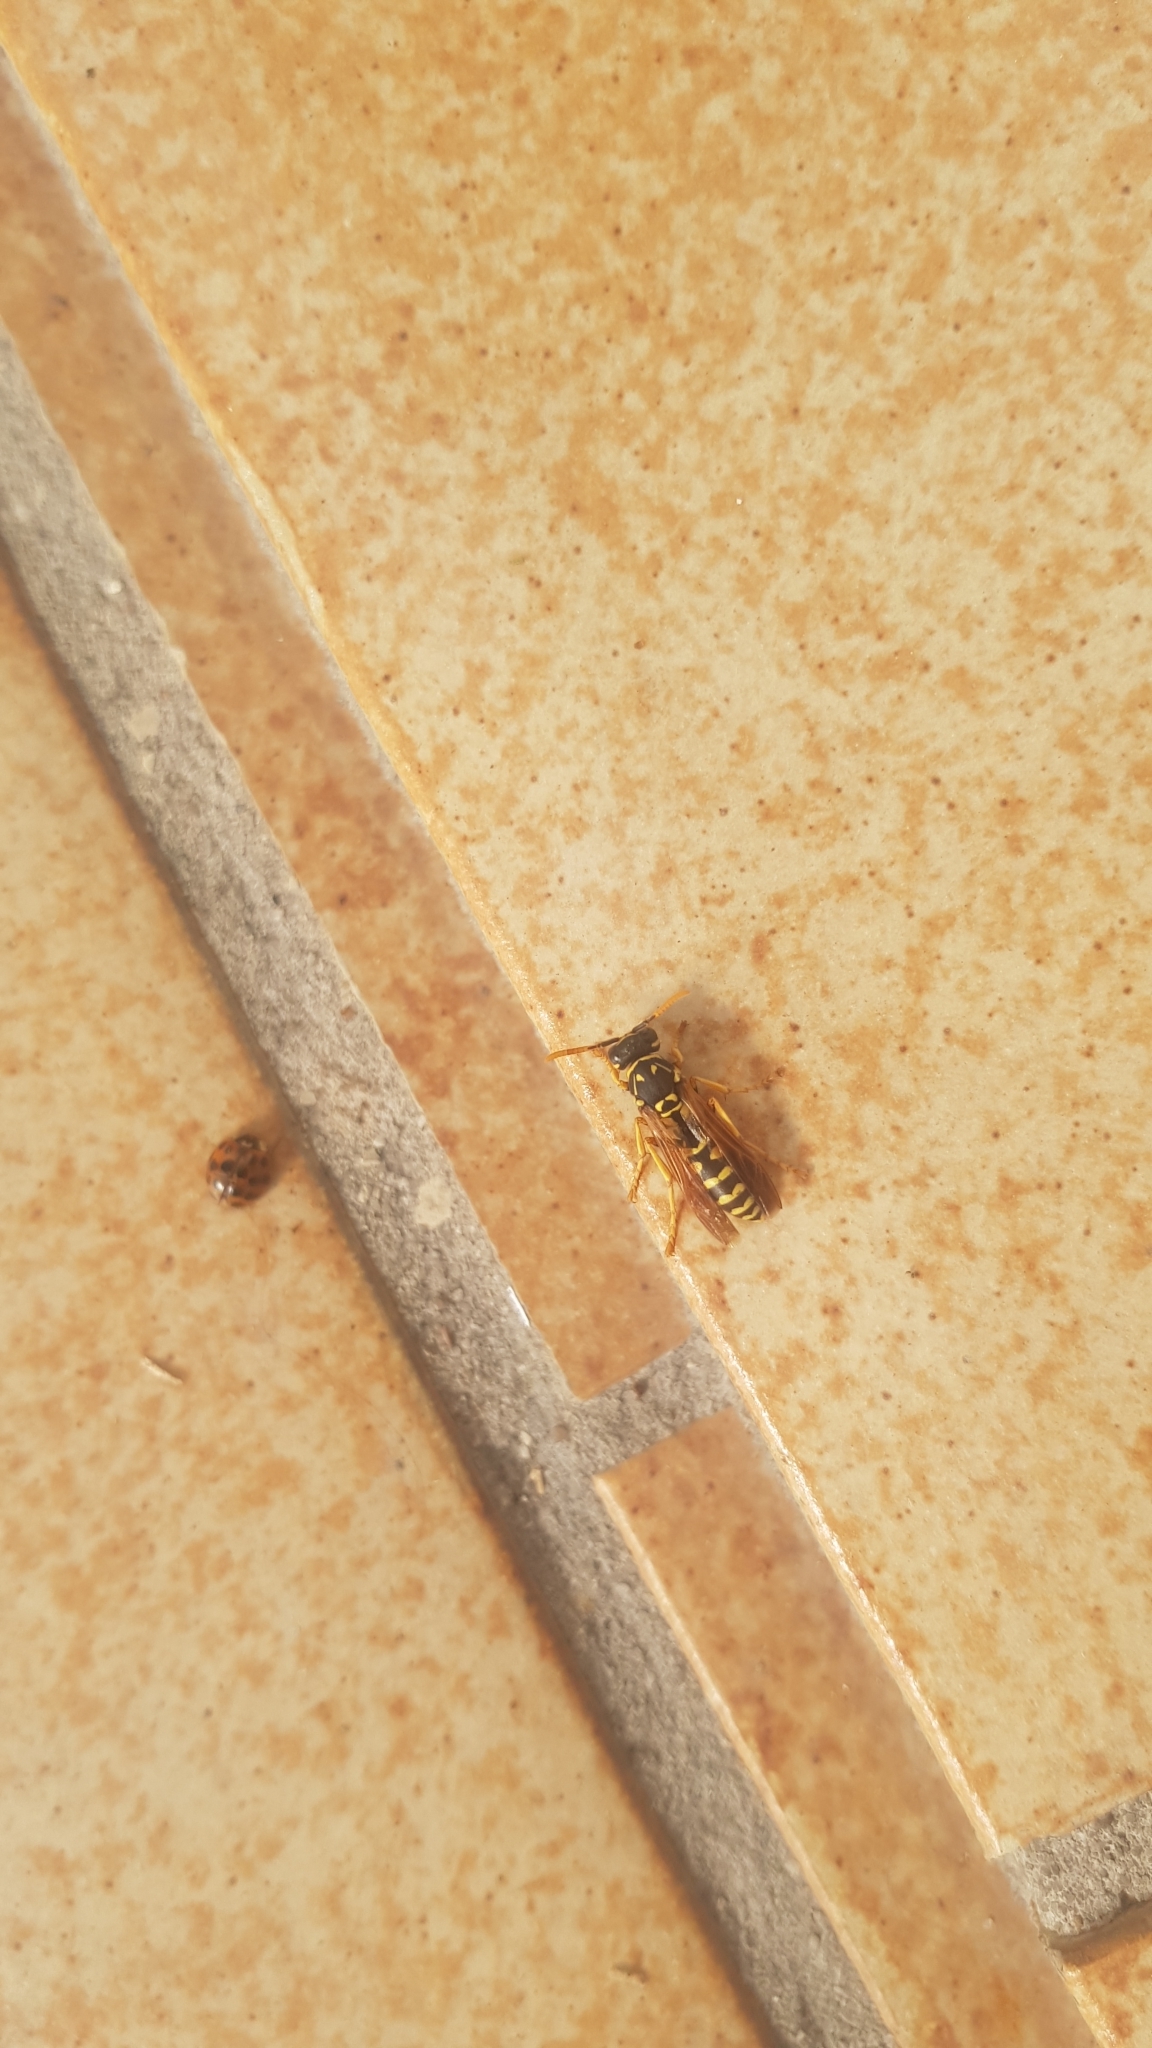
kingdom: Animalia
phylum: Arthropoda
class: Insecta
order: Hymenoptera
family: Eumenidae
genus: Polistes
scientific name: Polistes dominula
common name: Paper wasp
